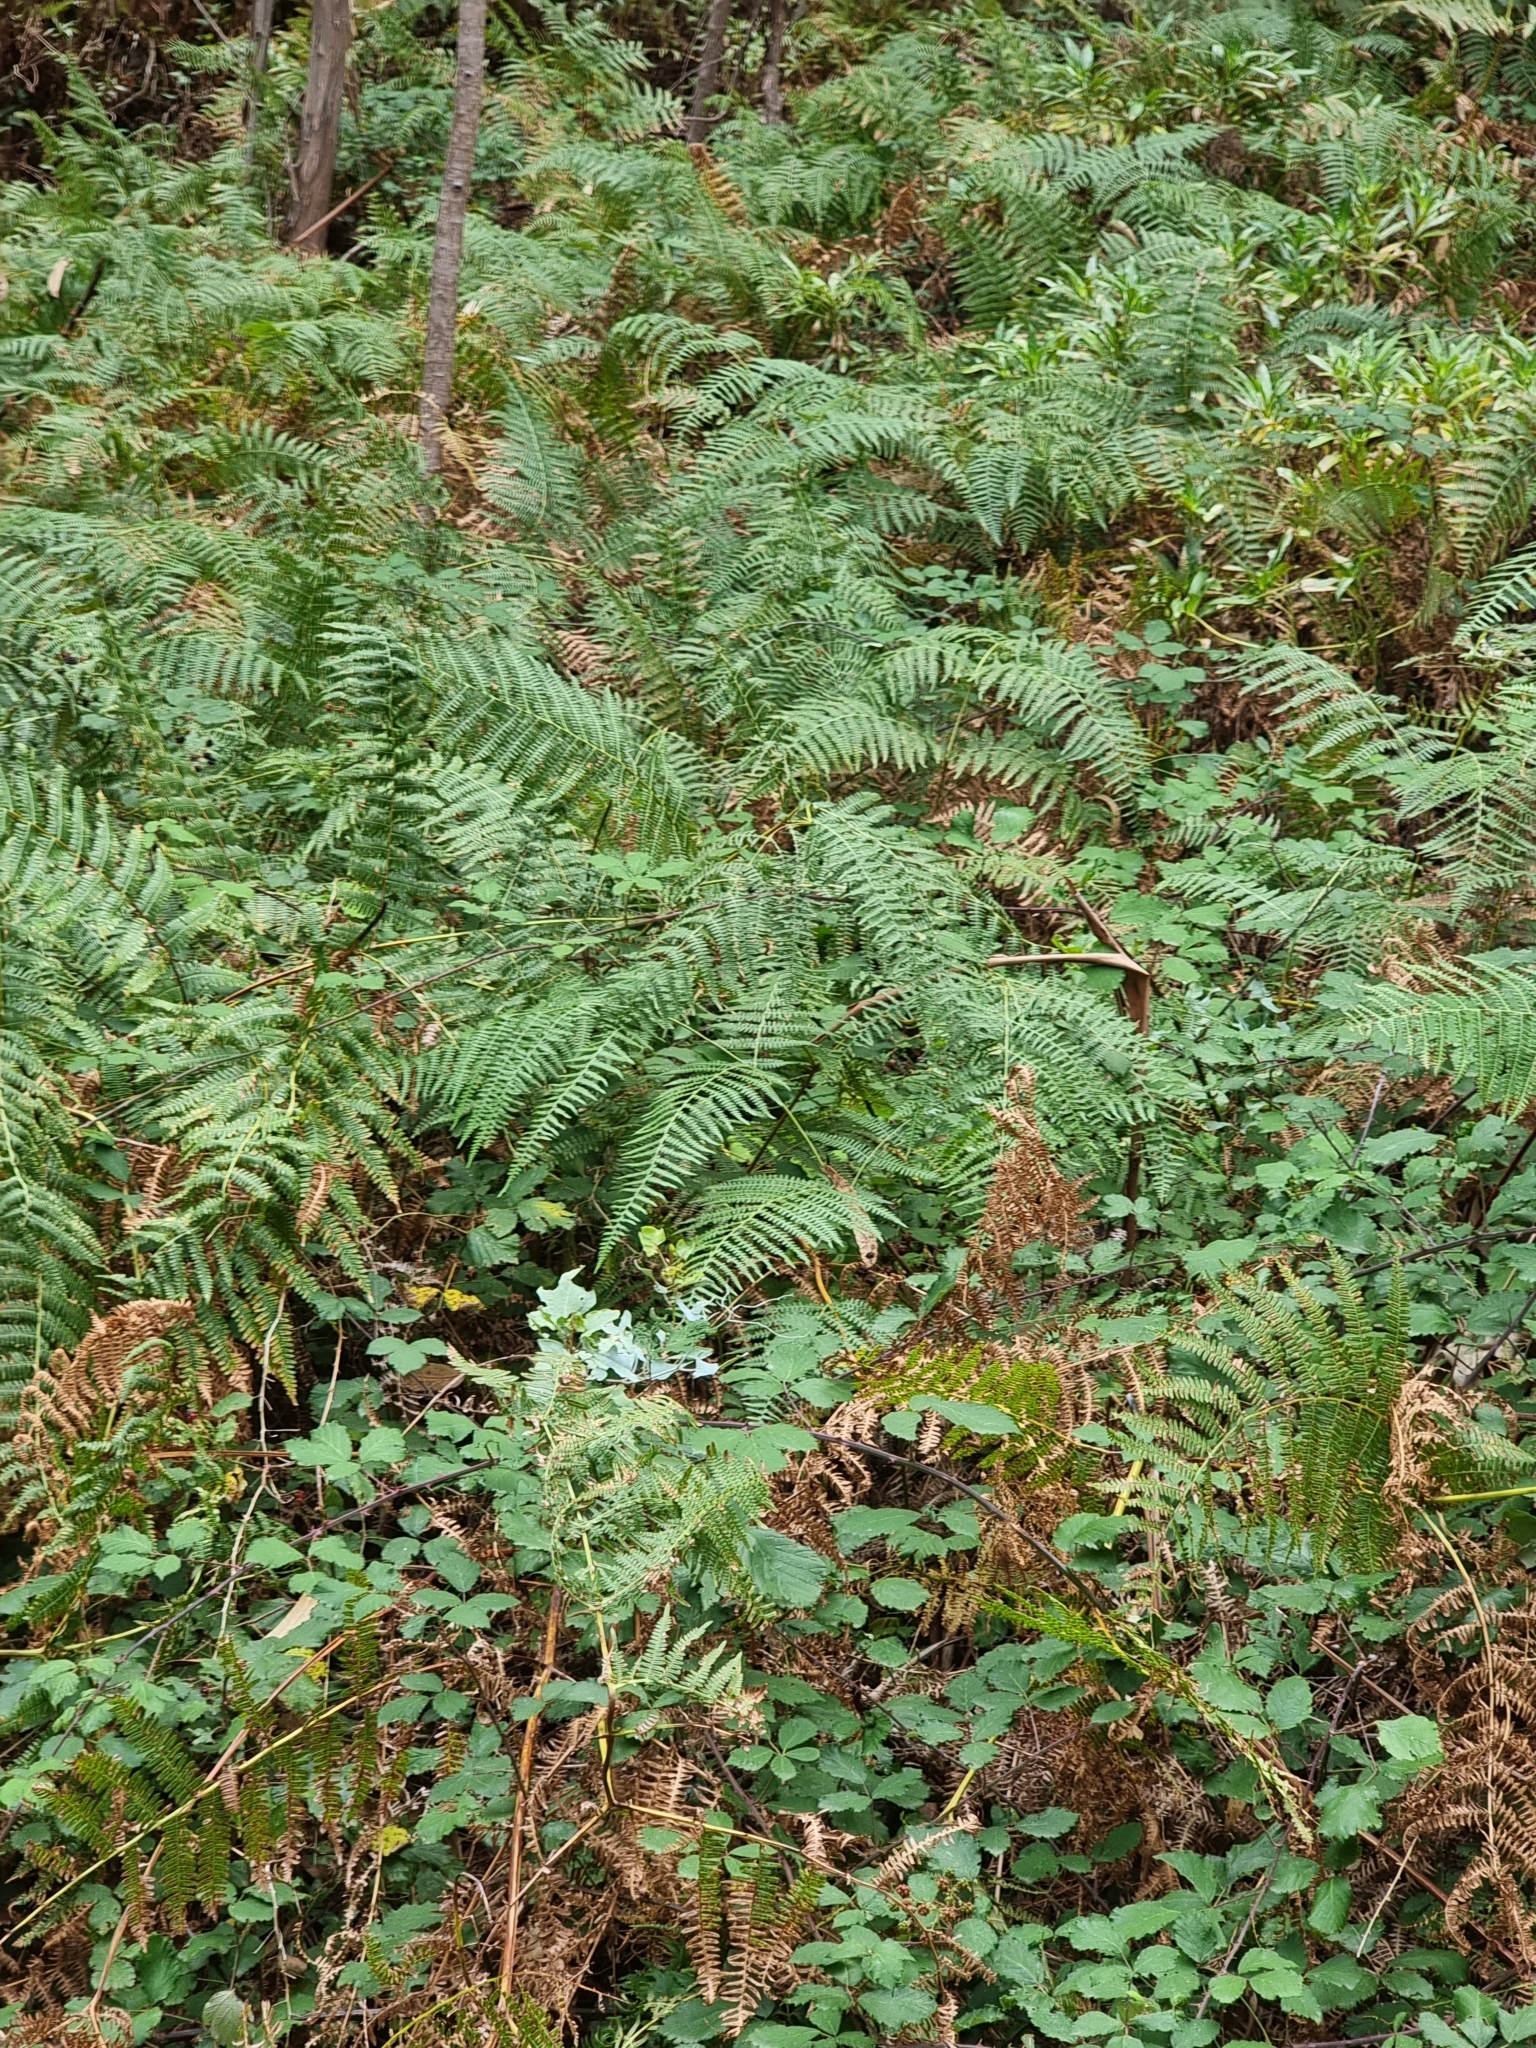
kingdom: Plantae
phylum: Tracheophyta
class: Polypodiopsida
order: Polypodiales
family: Dennstaedtiaceae
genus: Pteridium
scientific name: Pteridium aquilinum
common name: Bracken
